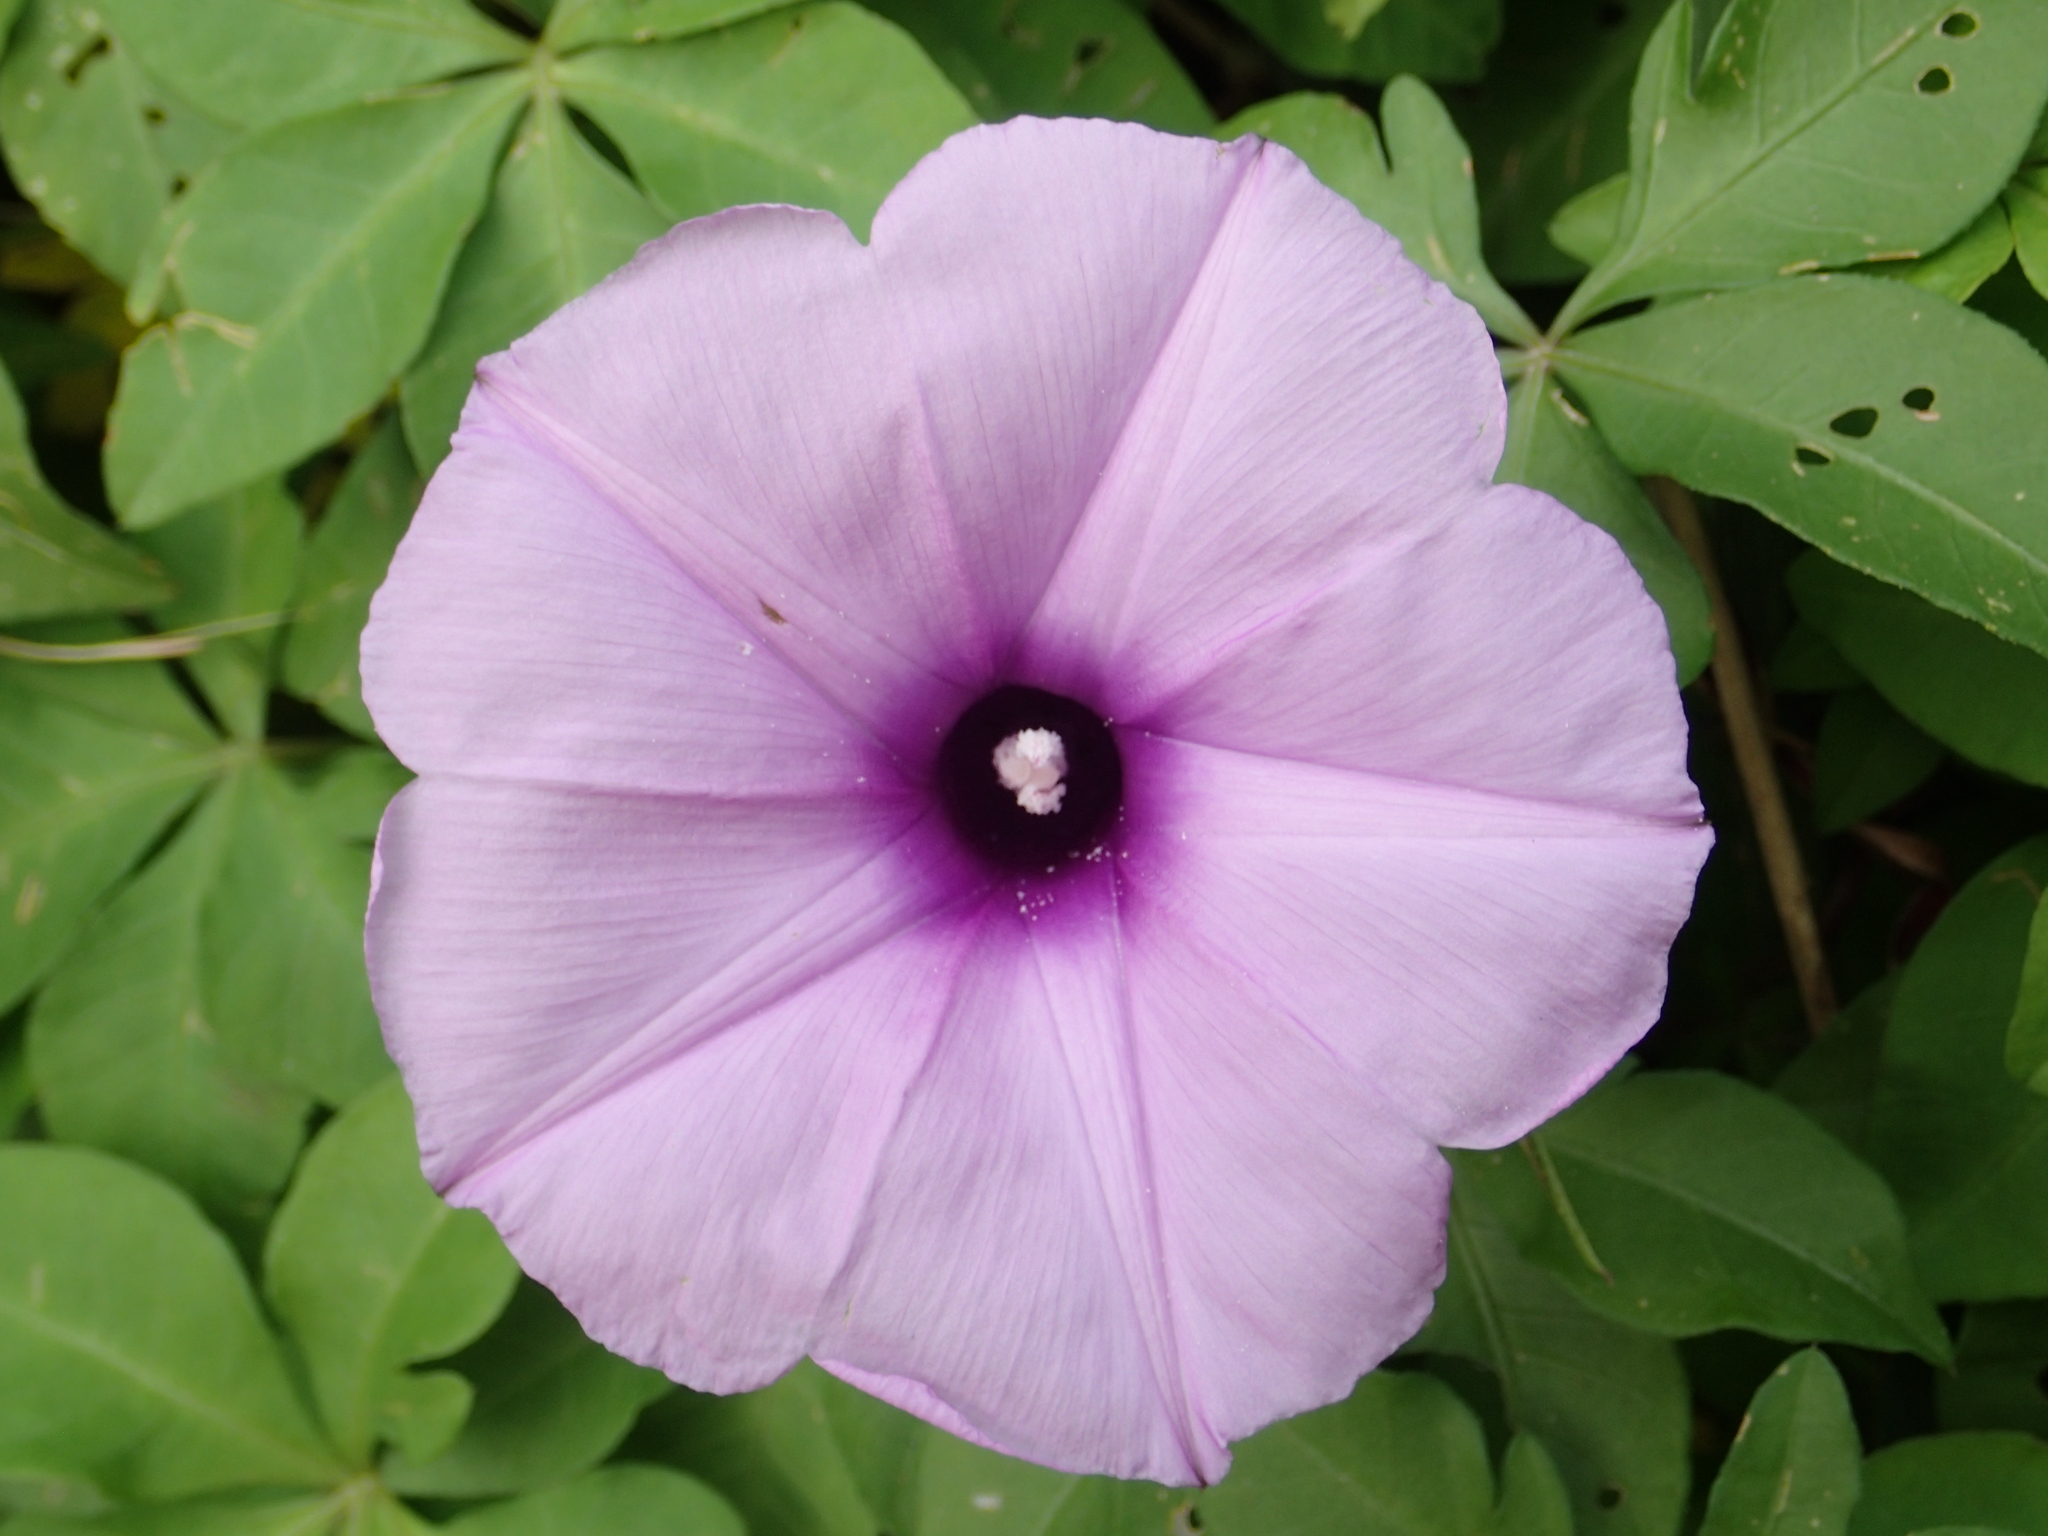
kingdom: Plantae
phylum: Tracheophyta
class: Magnoliopsida
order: Solanales
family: Convolvulaceae
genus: Ipomoea
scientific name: Ipomoea cairica
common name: Mile a minute vine
